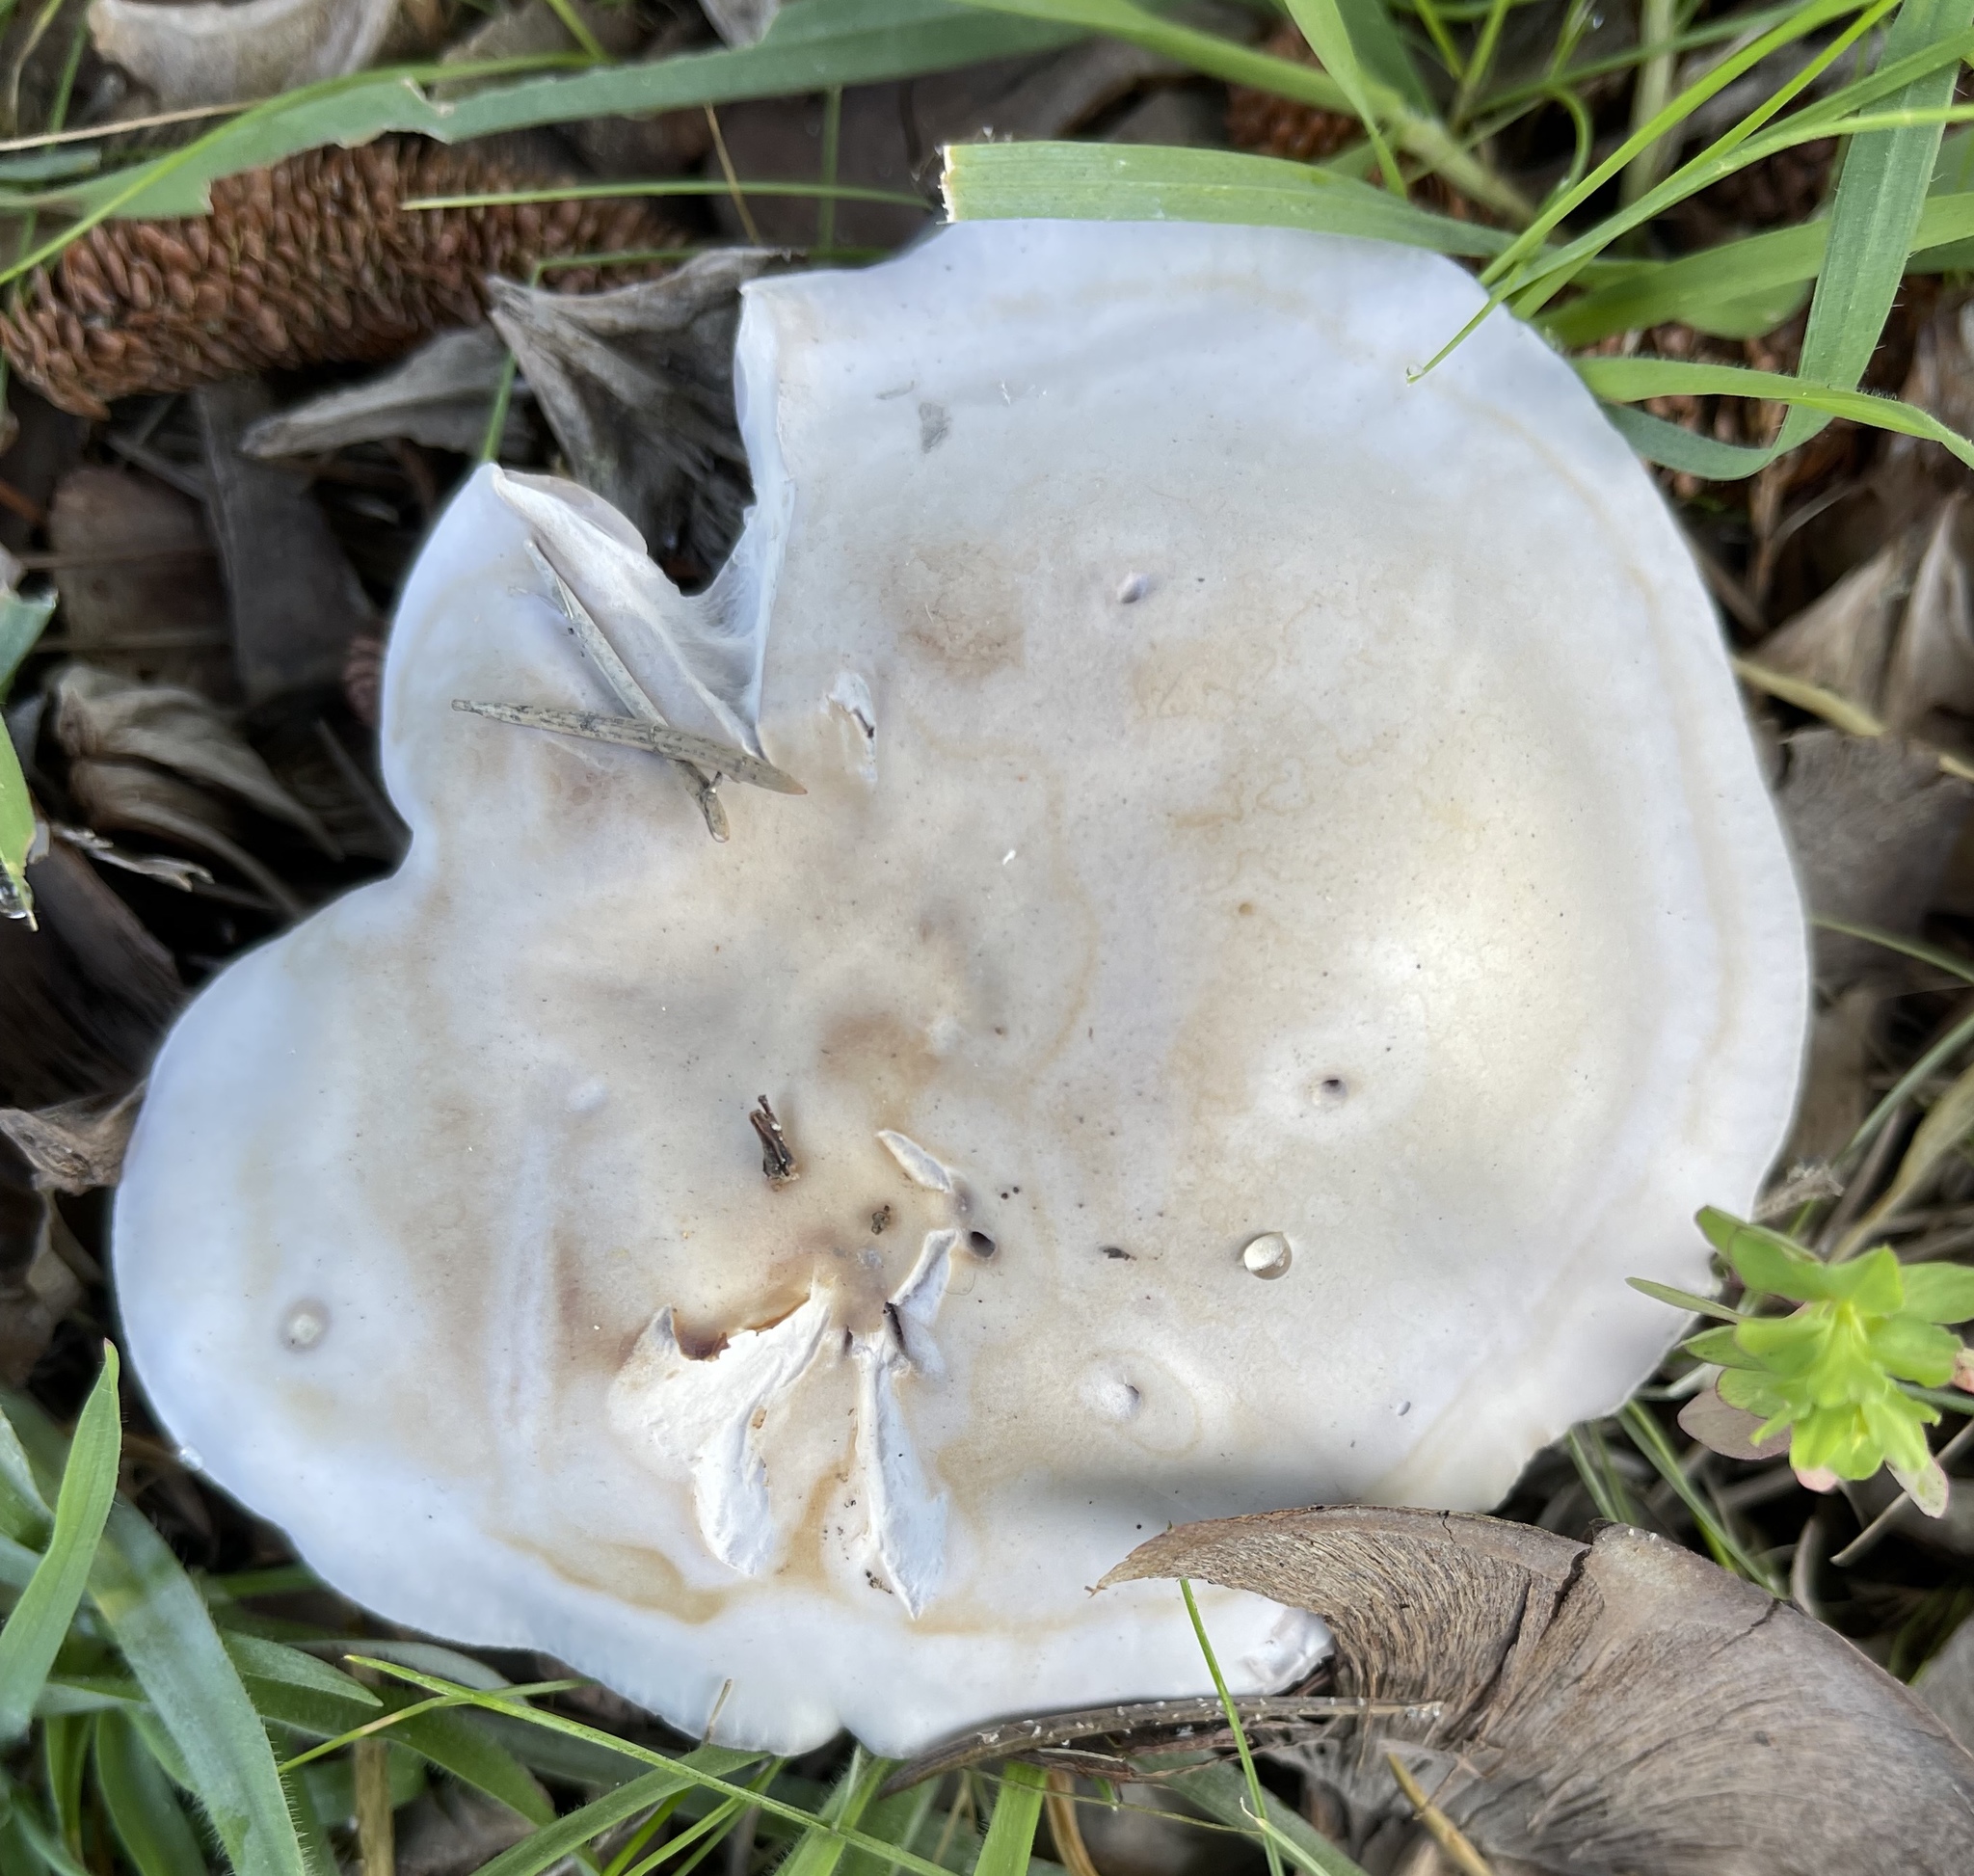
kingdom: Fungi
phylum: Basidiomycota
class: Agaricomycetes
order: Agaricales
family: Tricholomataceae
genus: Collybia
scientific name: Collybia
